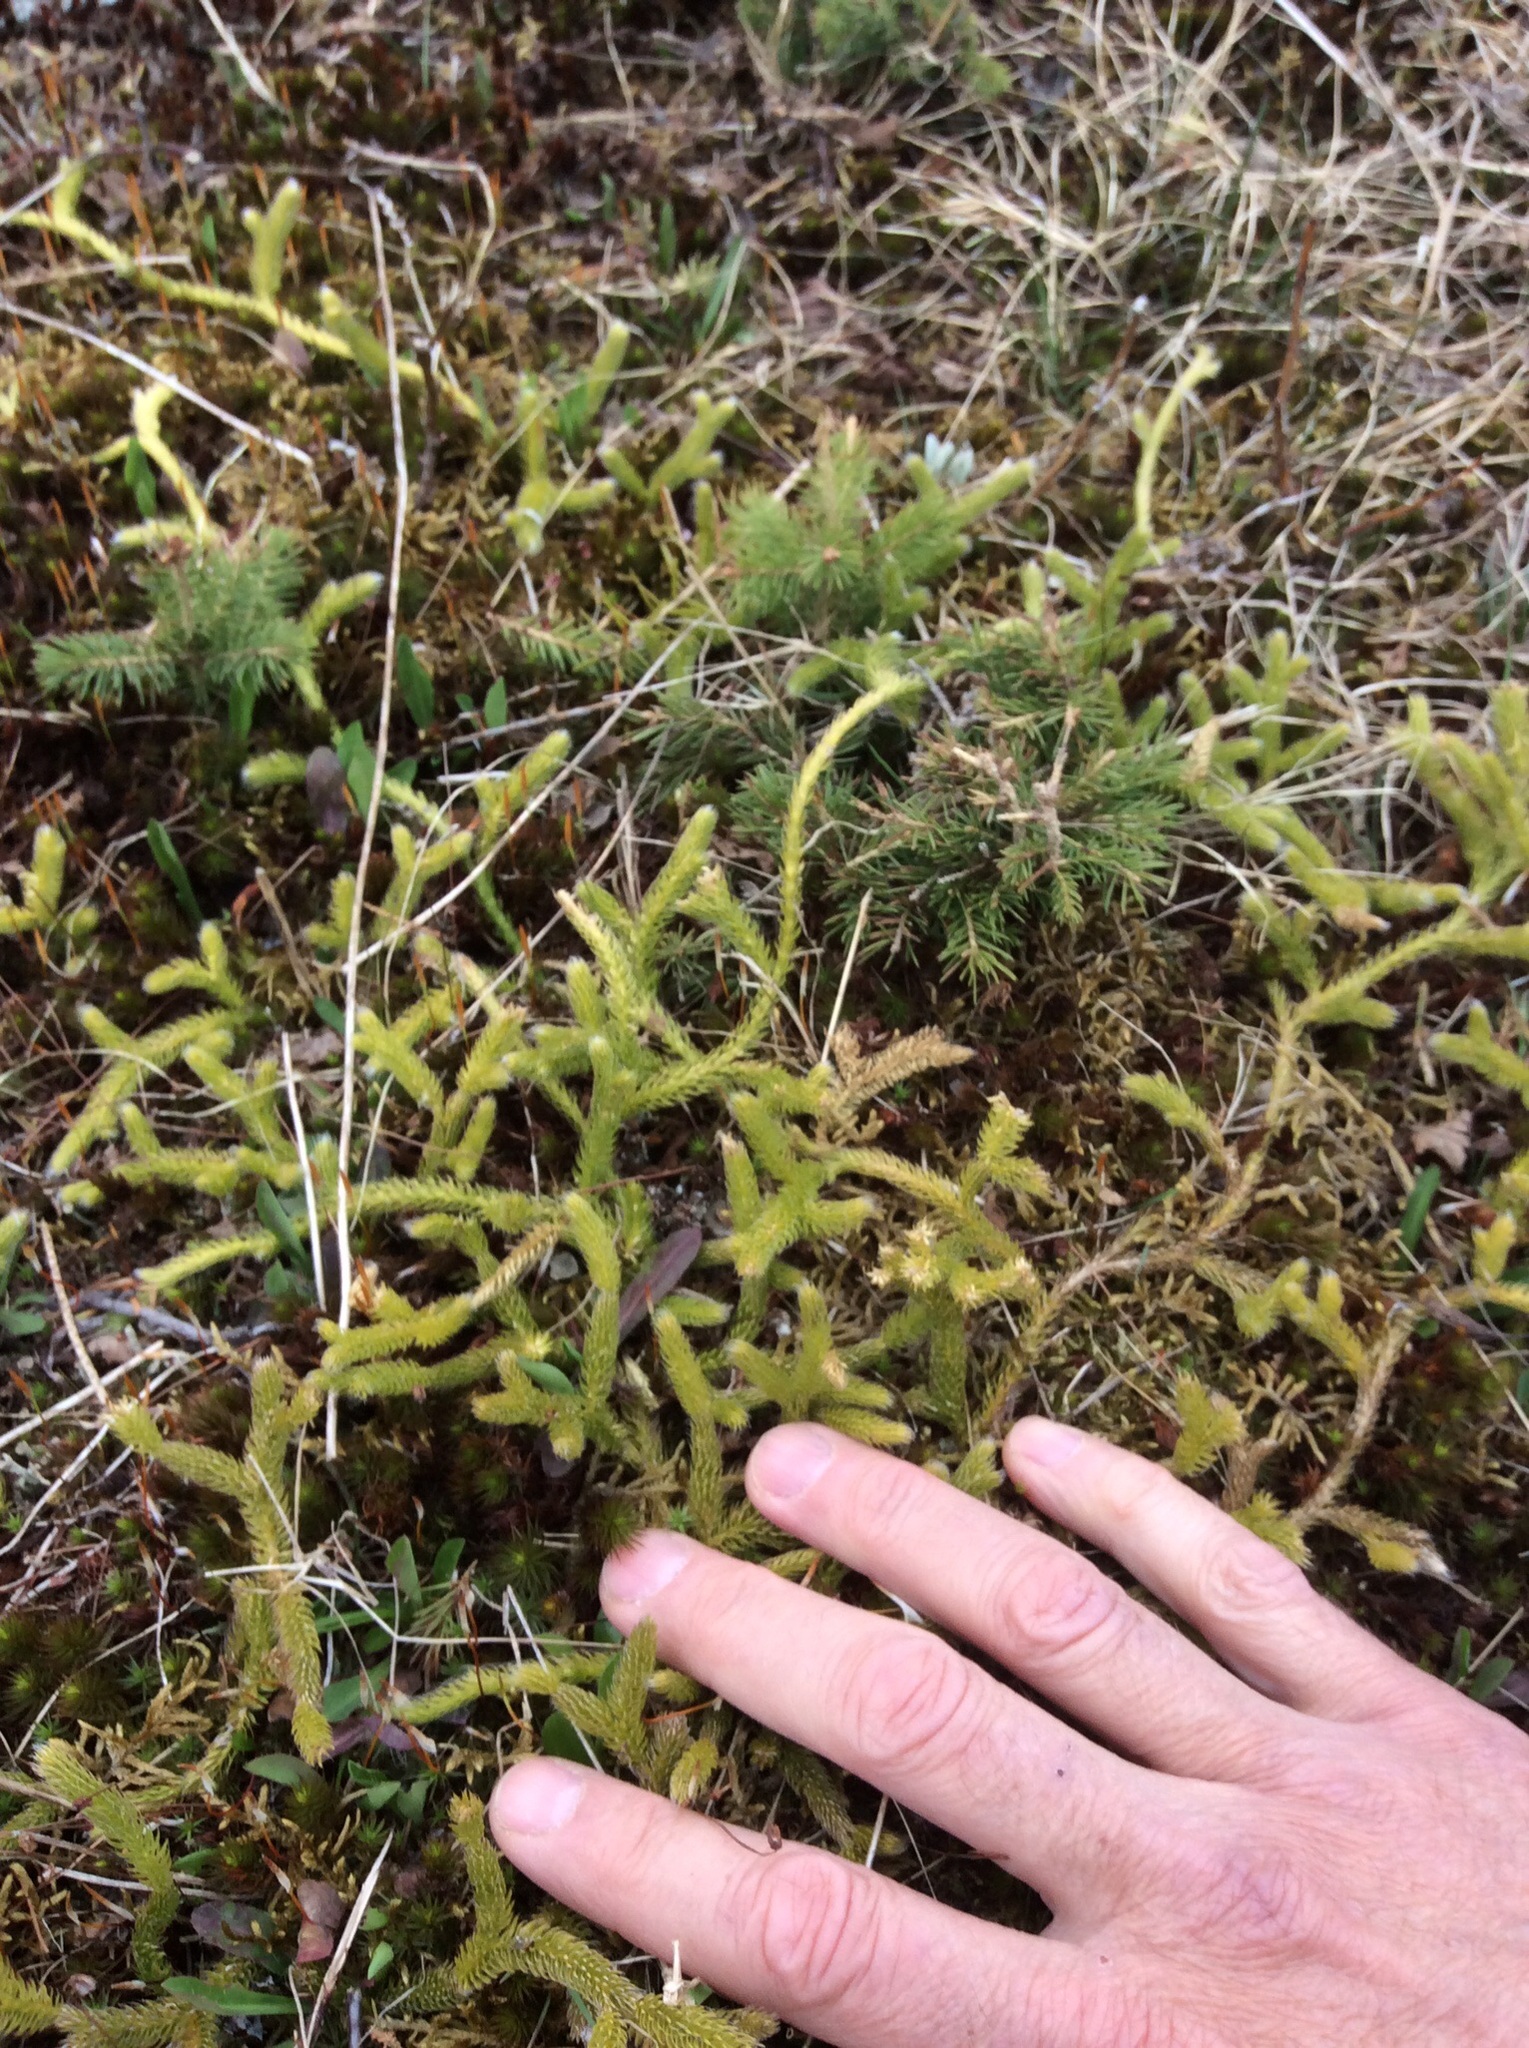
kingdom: Plantae
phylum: Tracheophyta
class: Lycopodiopsida
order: Lycopodiales
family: Lycopodiaceae
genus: Lycopodium
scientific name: Lycopodium clavatum
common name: Stag's-horn clubmoss
